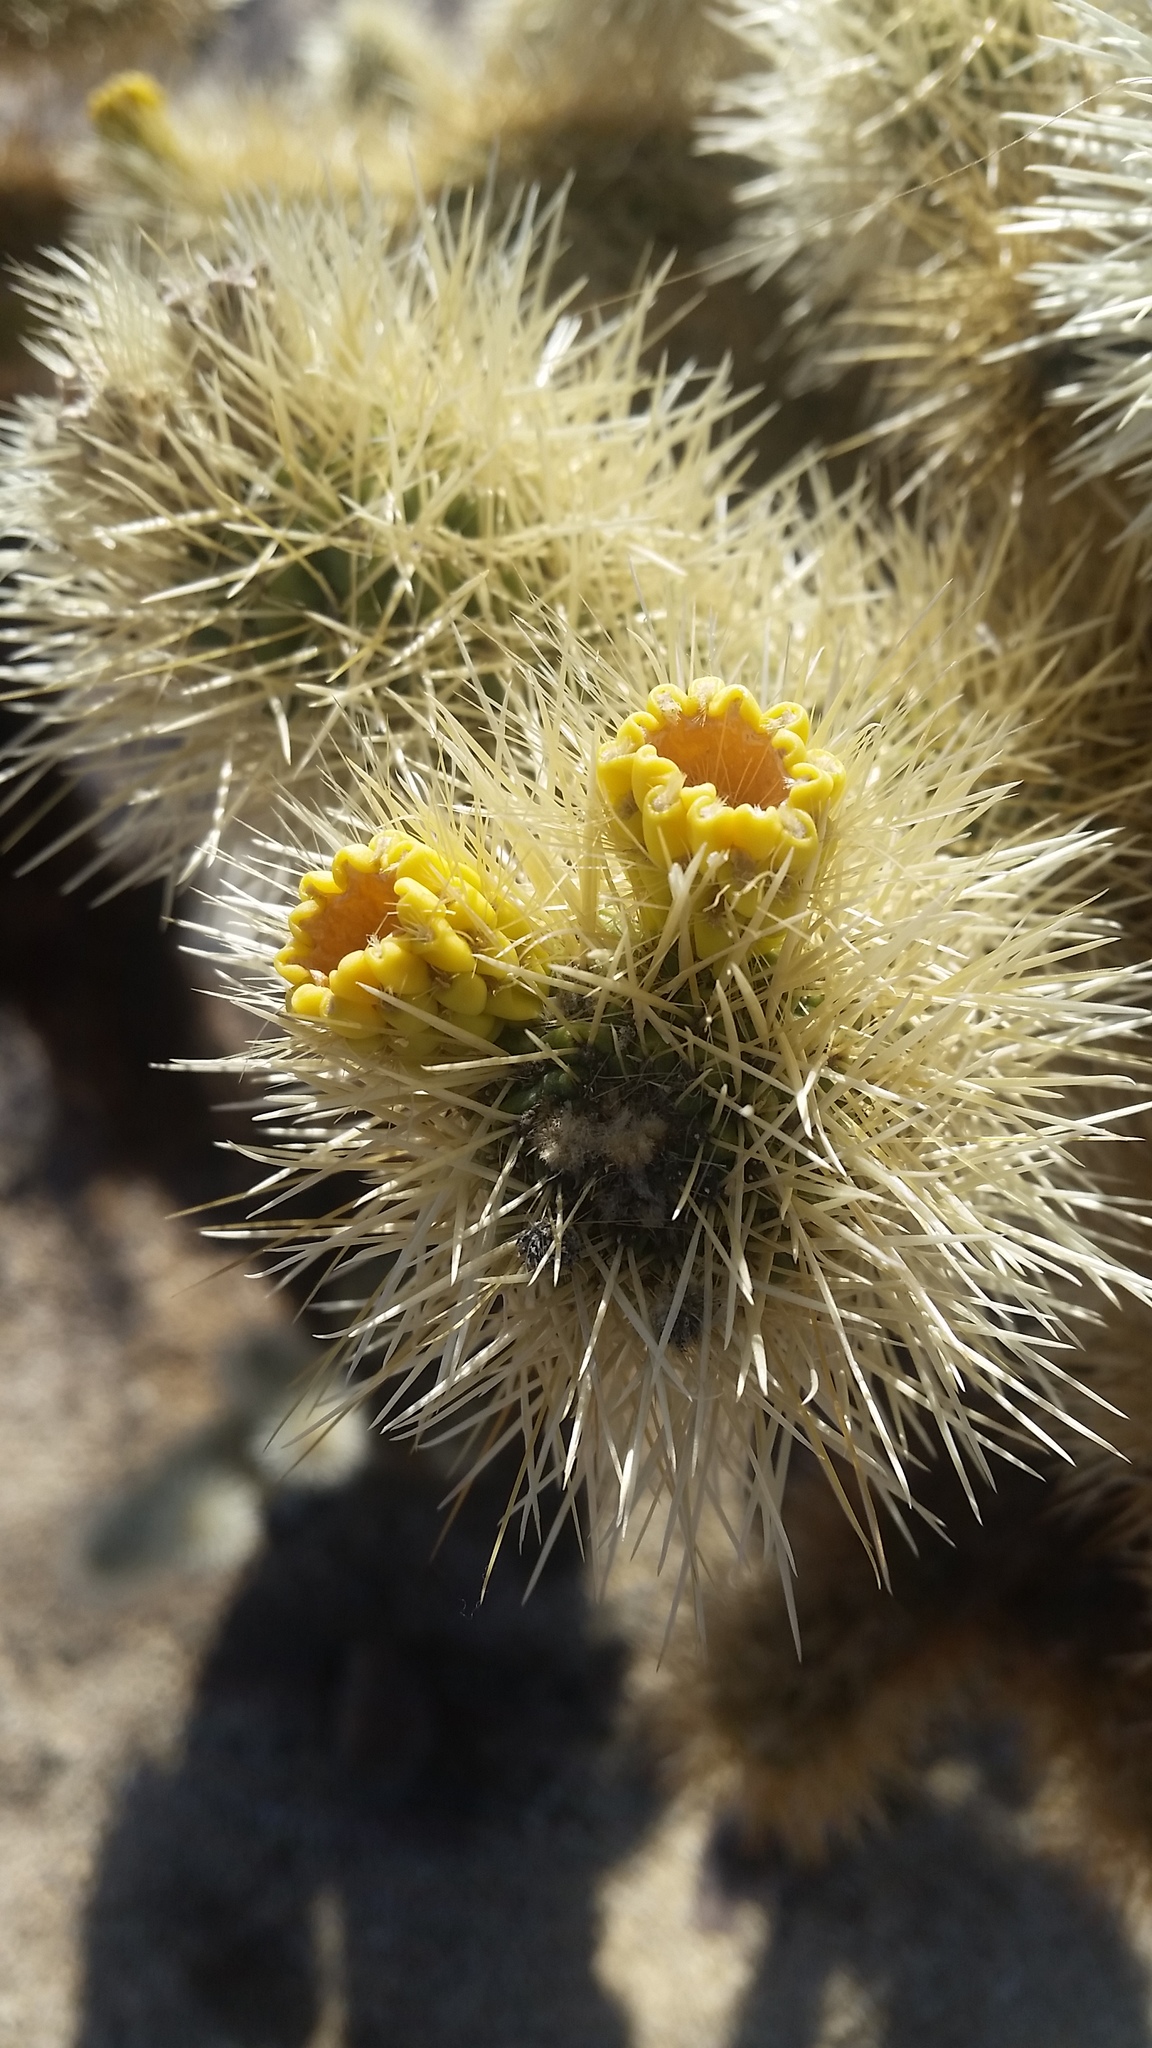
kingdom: Plantae
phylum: Tracheophyta
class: Magnoliopsida
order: Caryophyllales
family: Cactaceae
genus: Cylindropuntia
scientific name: Cylindropuntia fosbergii
